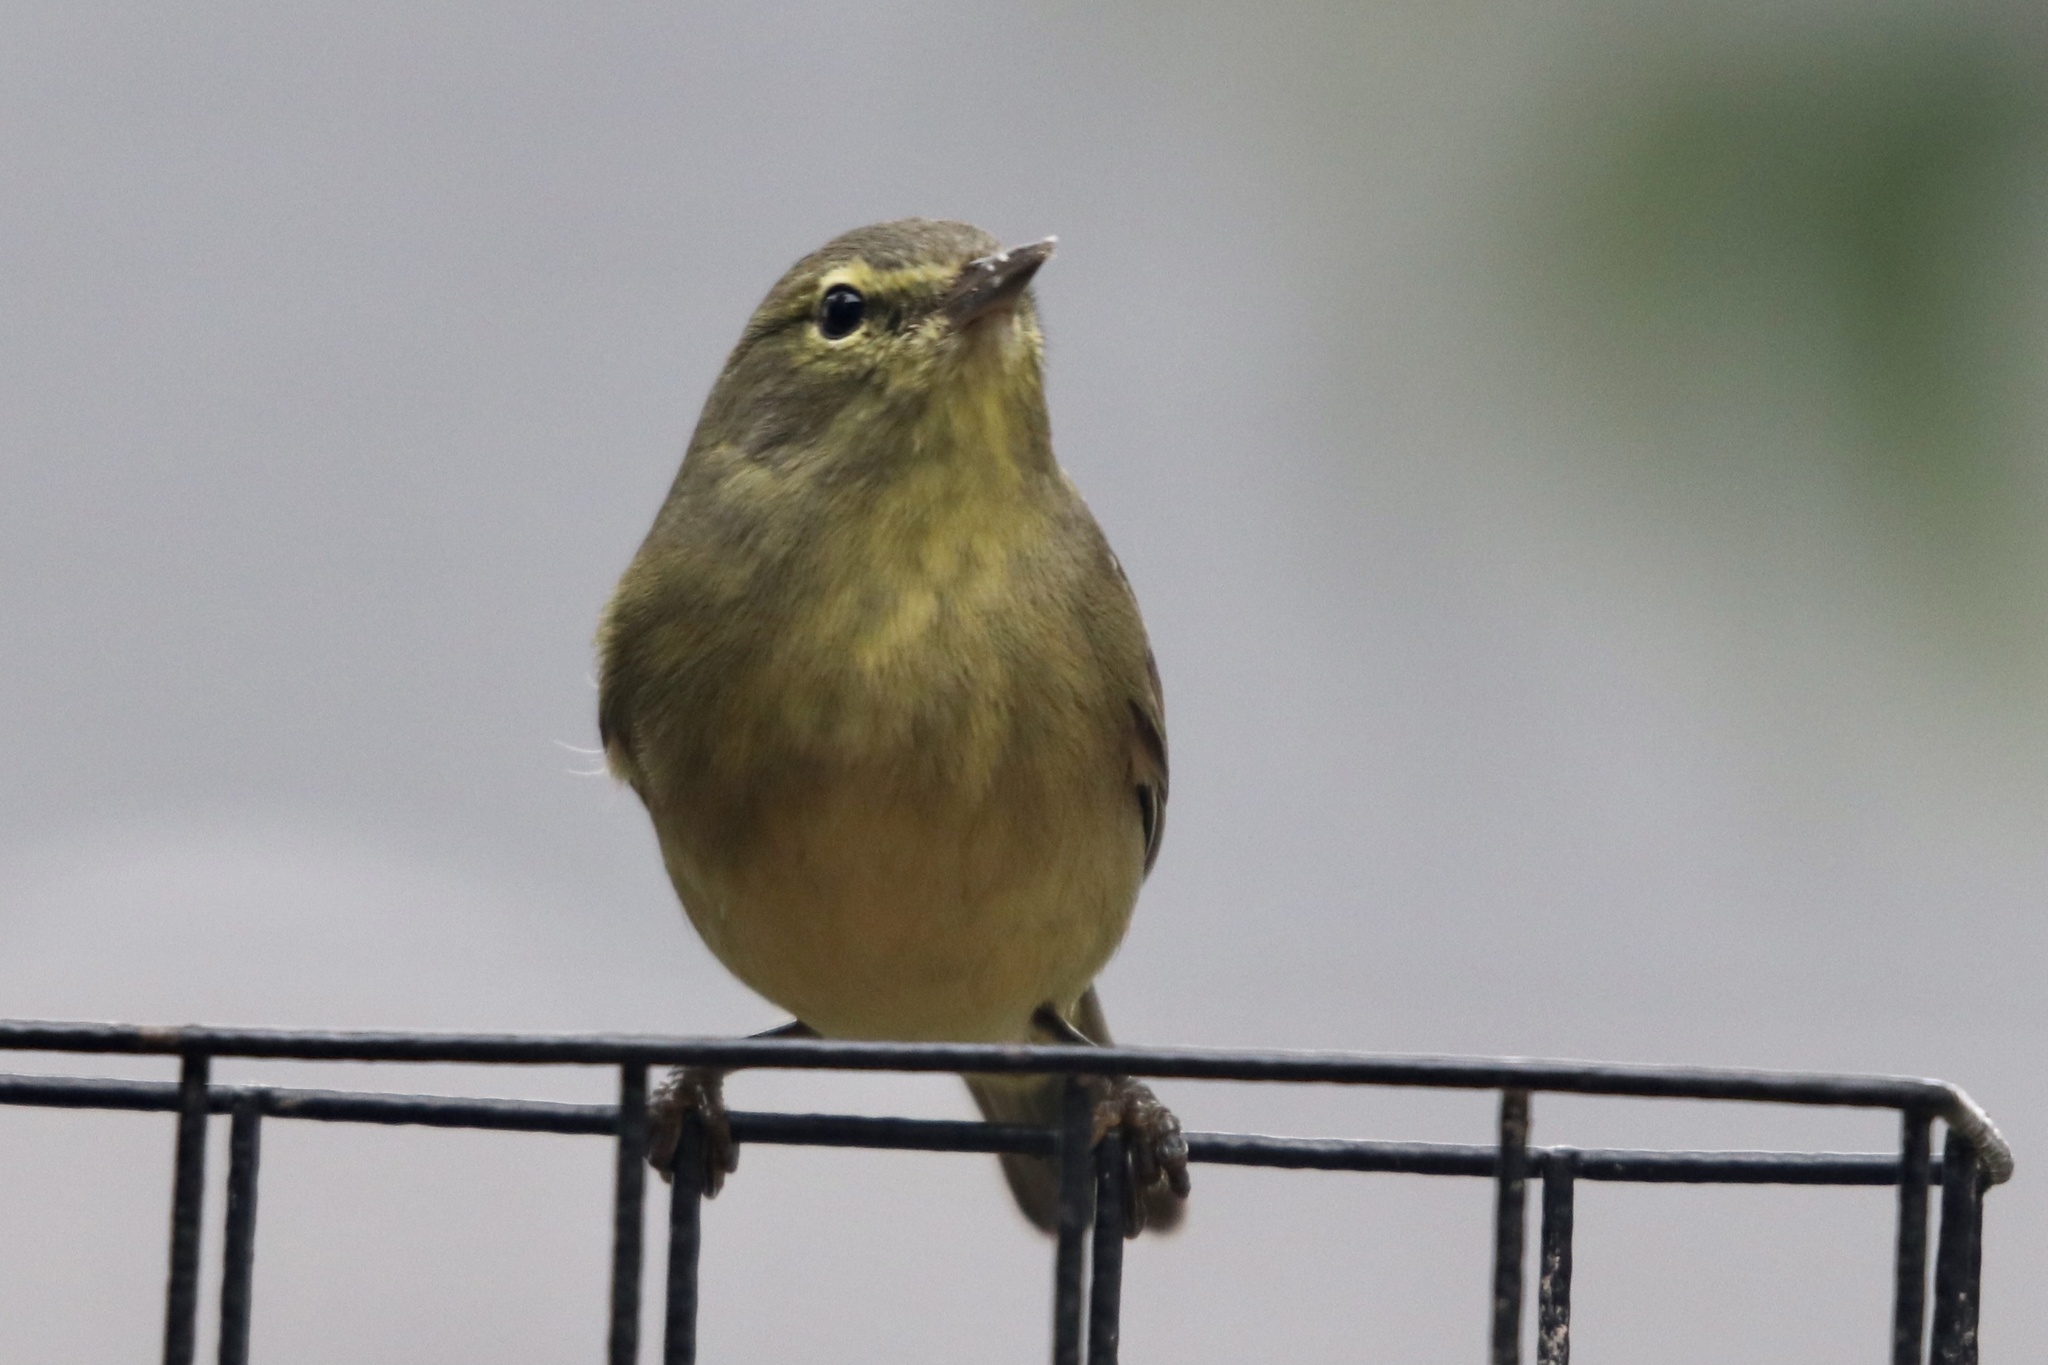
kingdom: Animalia
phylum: Chordata
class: Aves
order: Passeriformes
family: Parulidae
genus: Leiothlypis
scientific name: Leiothlypis celata
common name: Orange-crowned warbler
